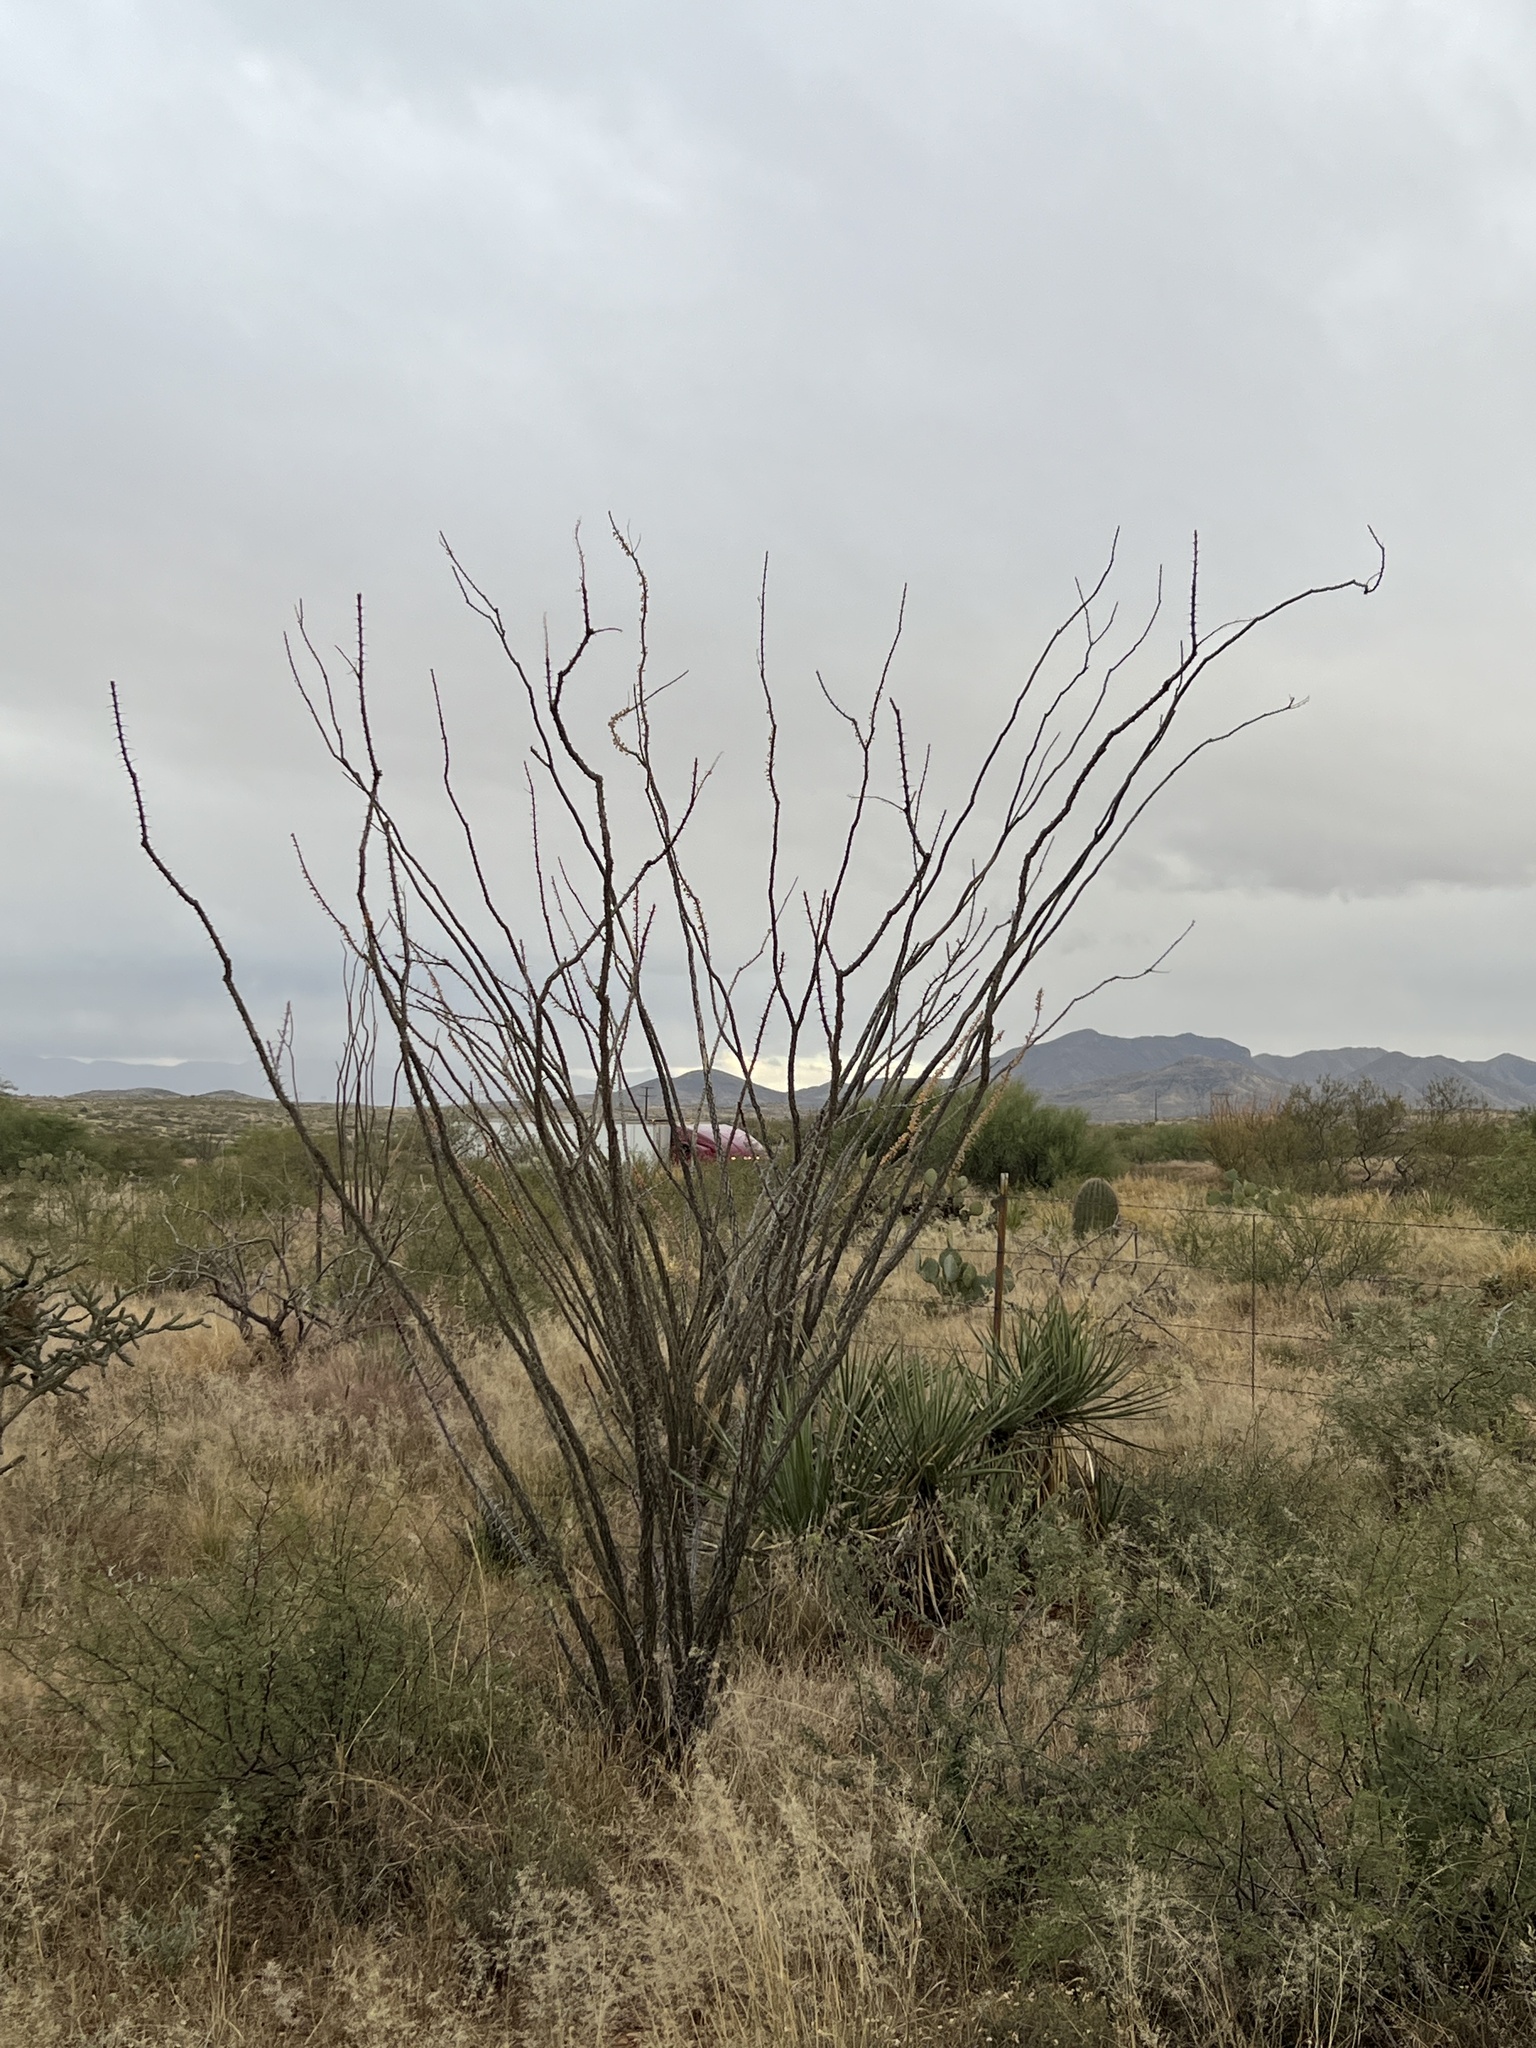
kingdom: Plantae
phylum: Tracheophyta
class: Magnoliopsida
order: Ericales
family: Fouquieriaceae
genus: Fouquieria
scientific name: Fouquieria splendens
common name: Vine-cactus
